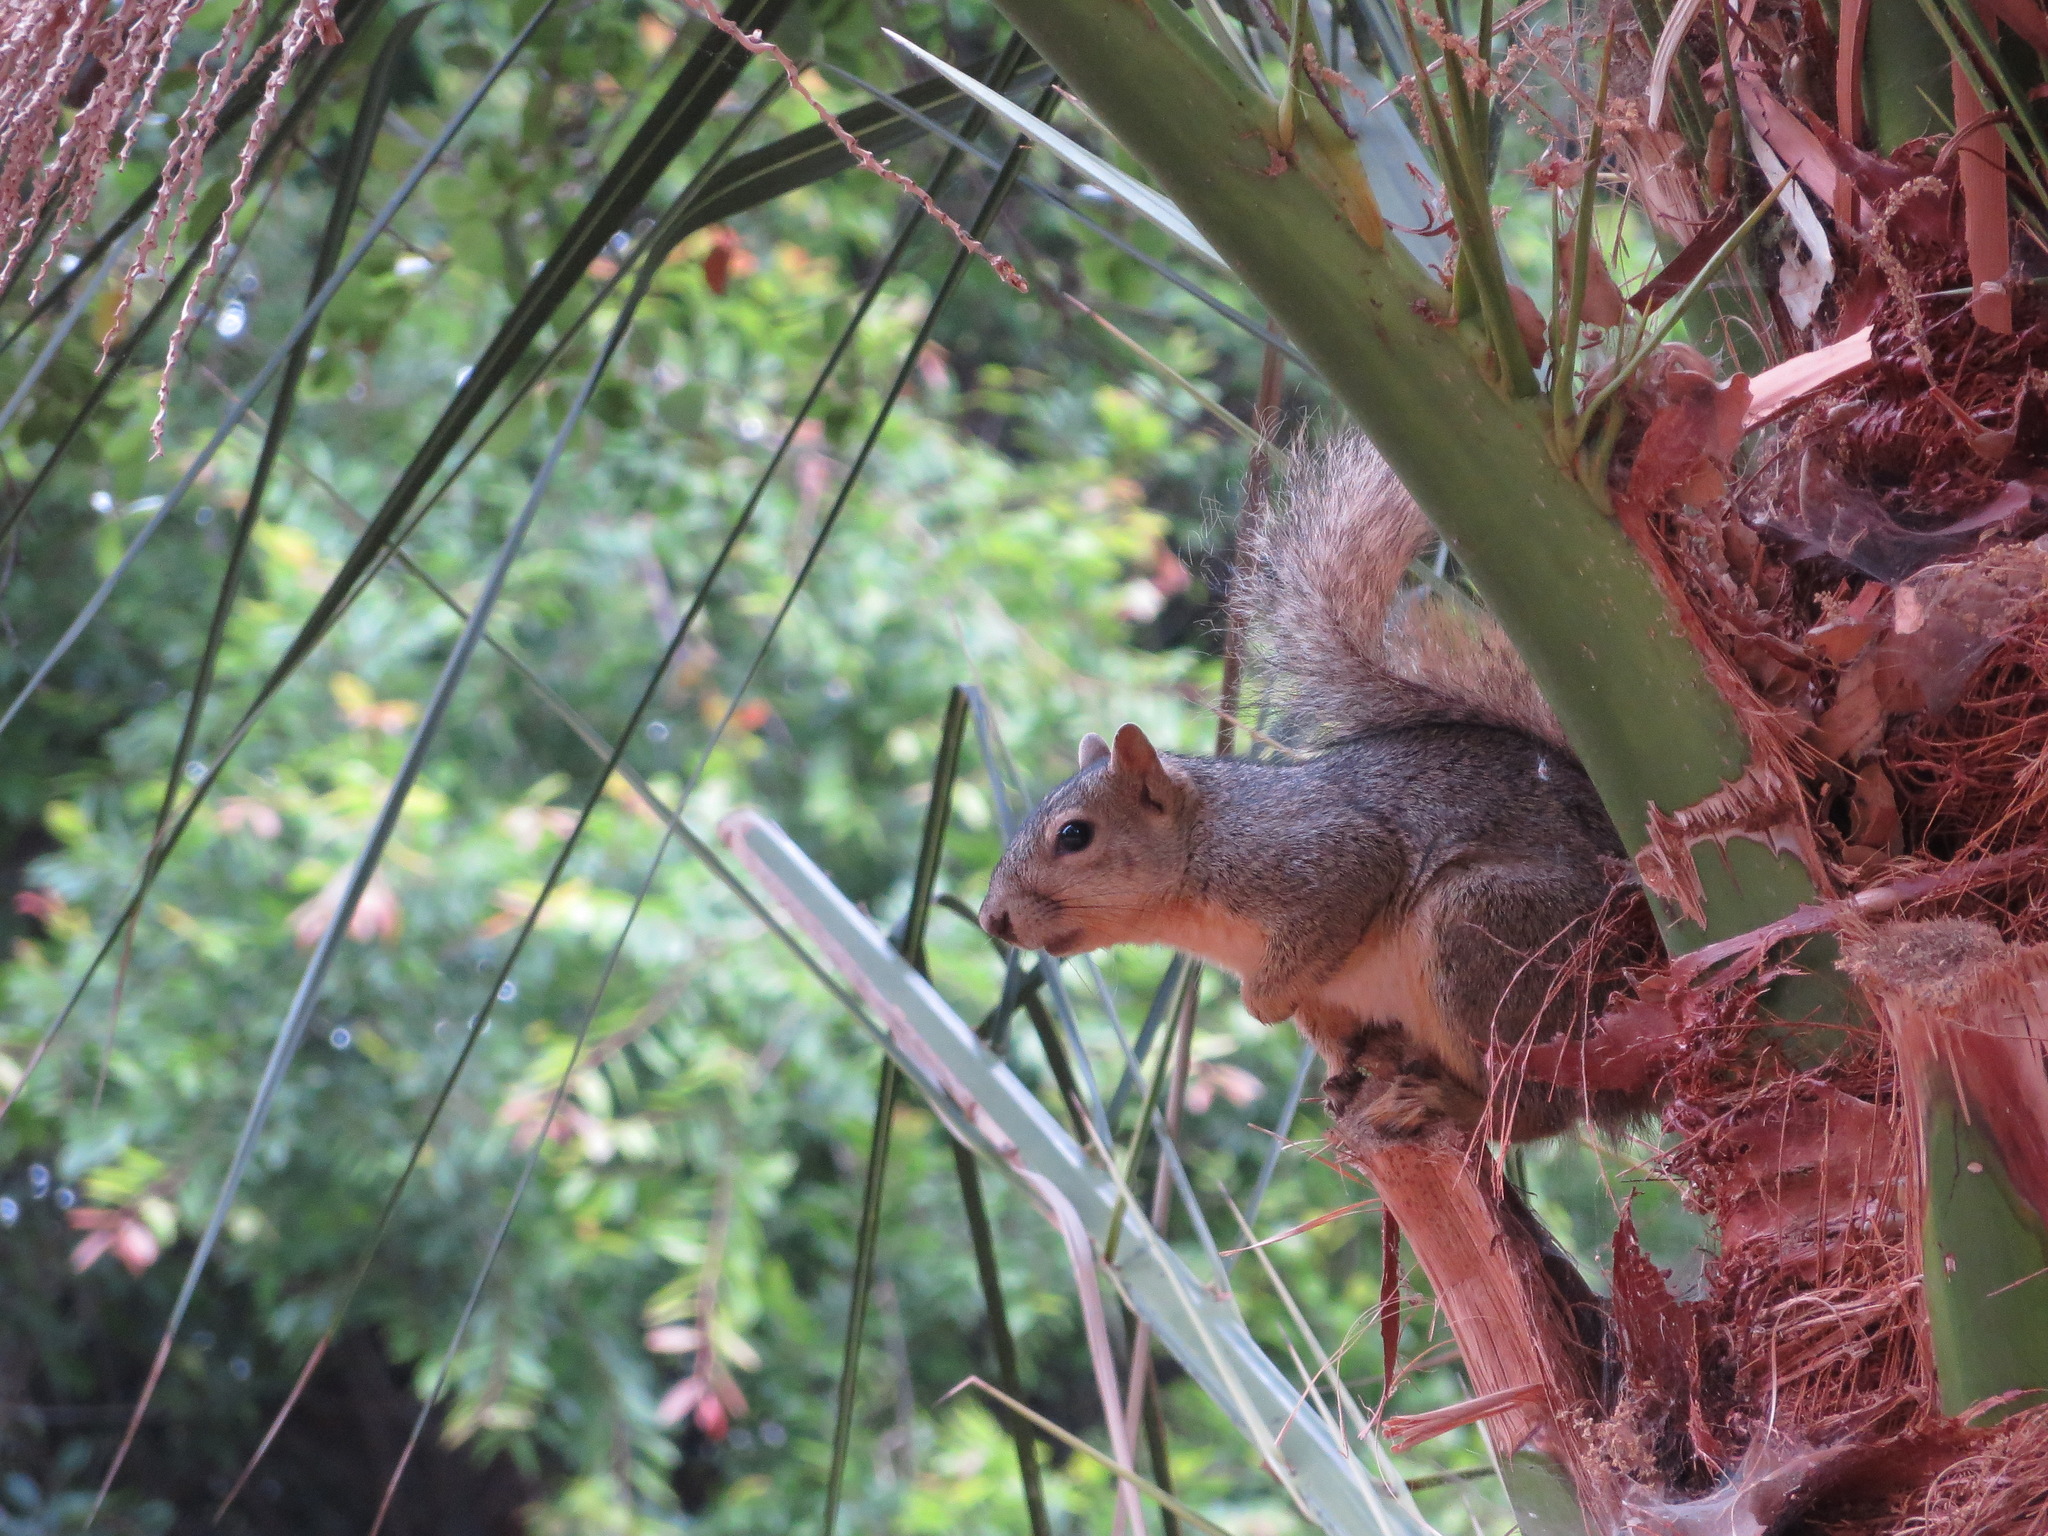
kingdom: Animalia
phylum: Chordata
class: Mammalia
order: Rodentia
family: Sciuridae
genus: Sciurus
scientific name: Sciurus niger
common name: Fox squirrel
